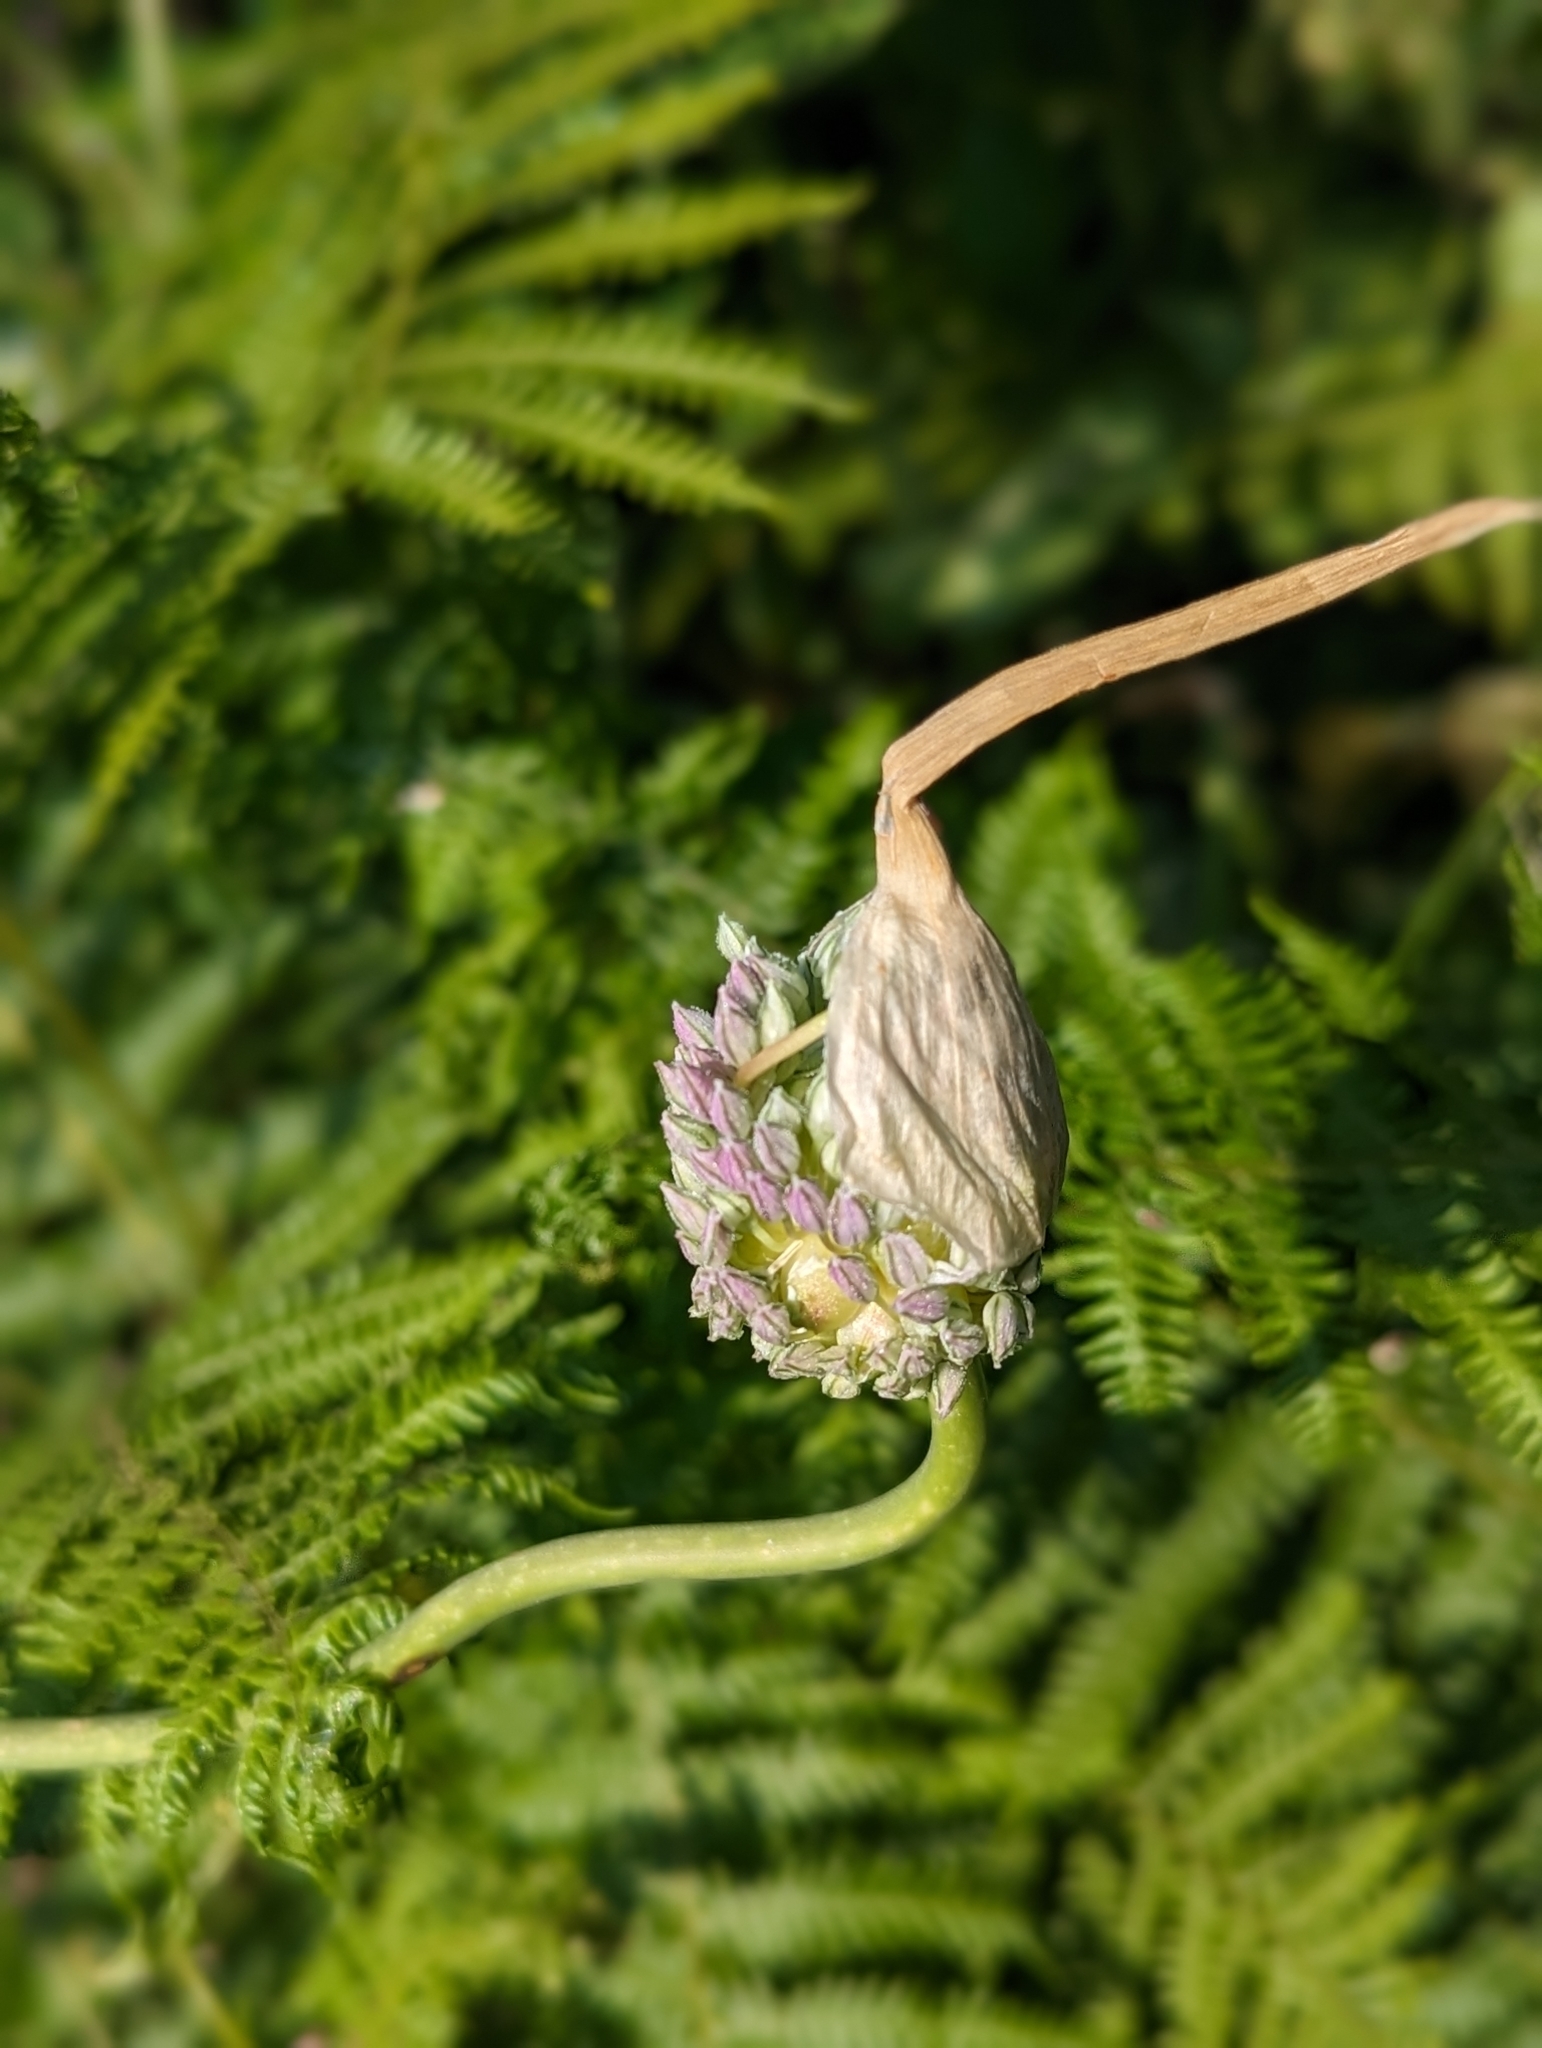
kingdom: Plantae
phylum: Tracheophyta
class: Liliopsida
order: Asparagales
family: Amaryllidaceae
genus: Allium
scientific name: Allium ampeloprasum
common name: Wild leek
